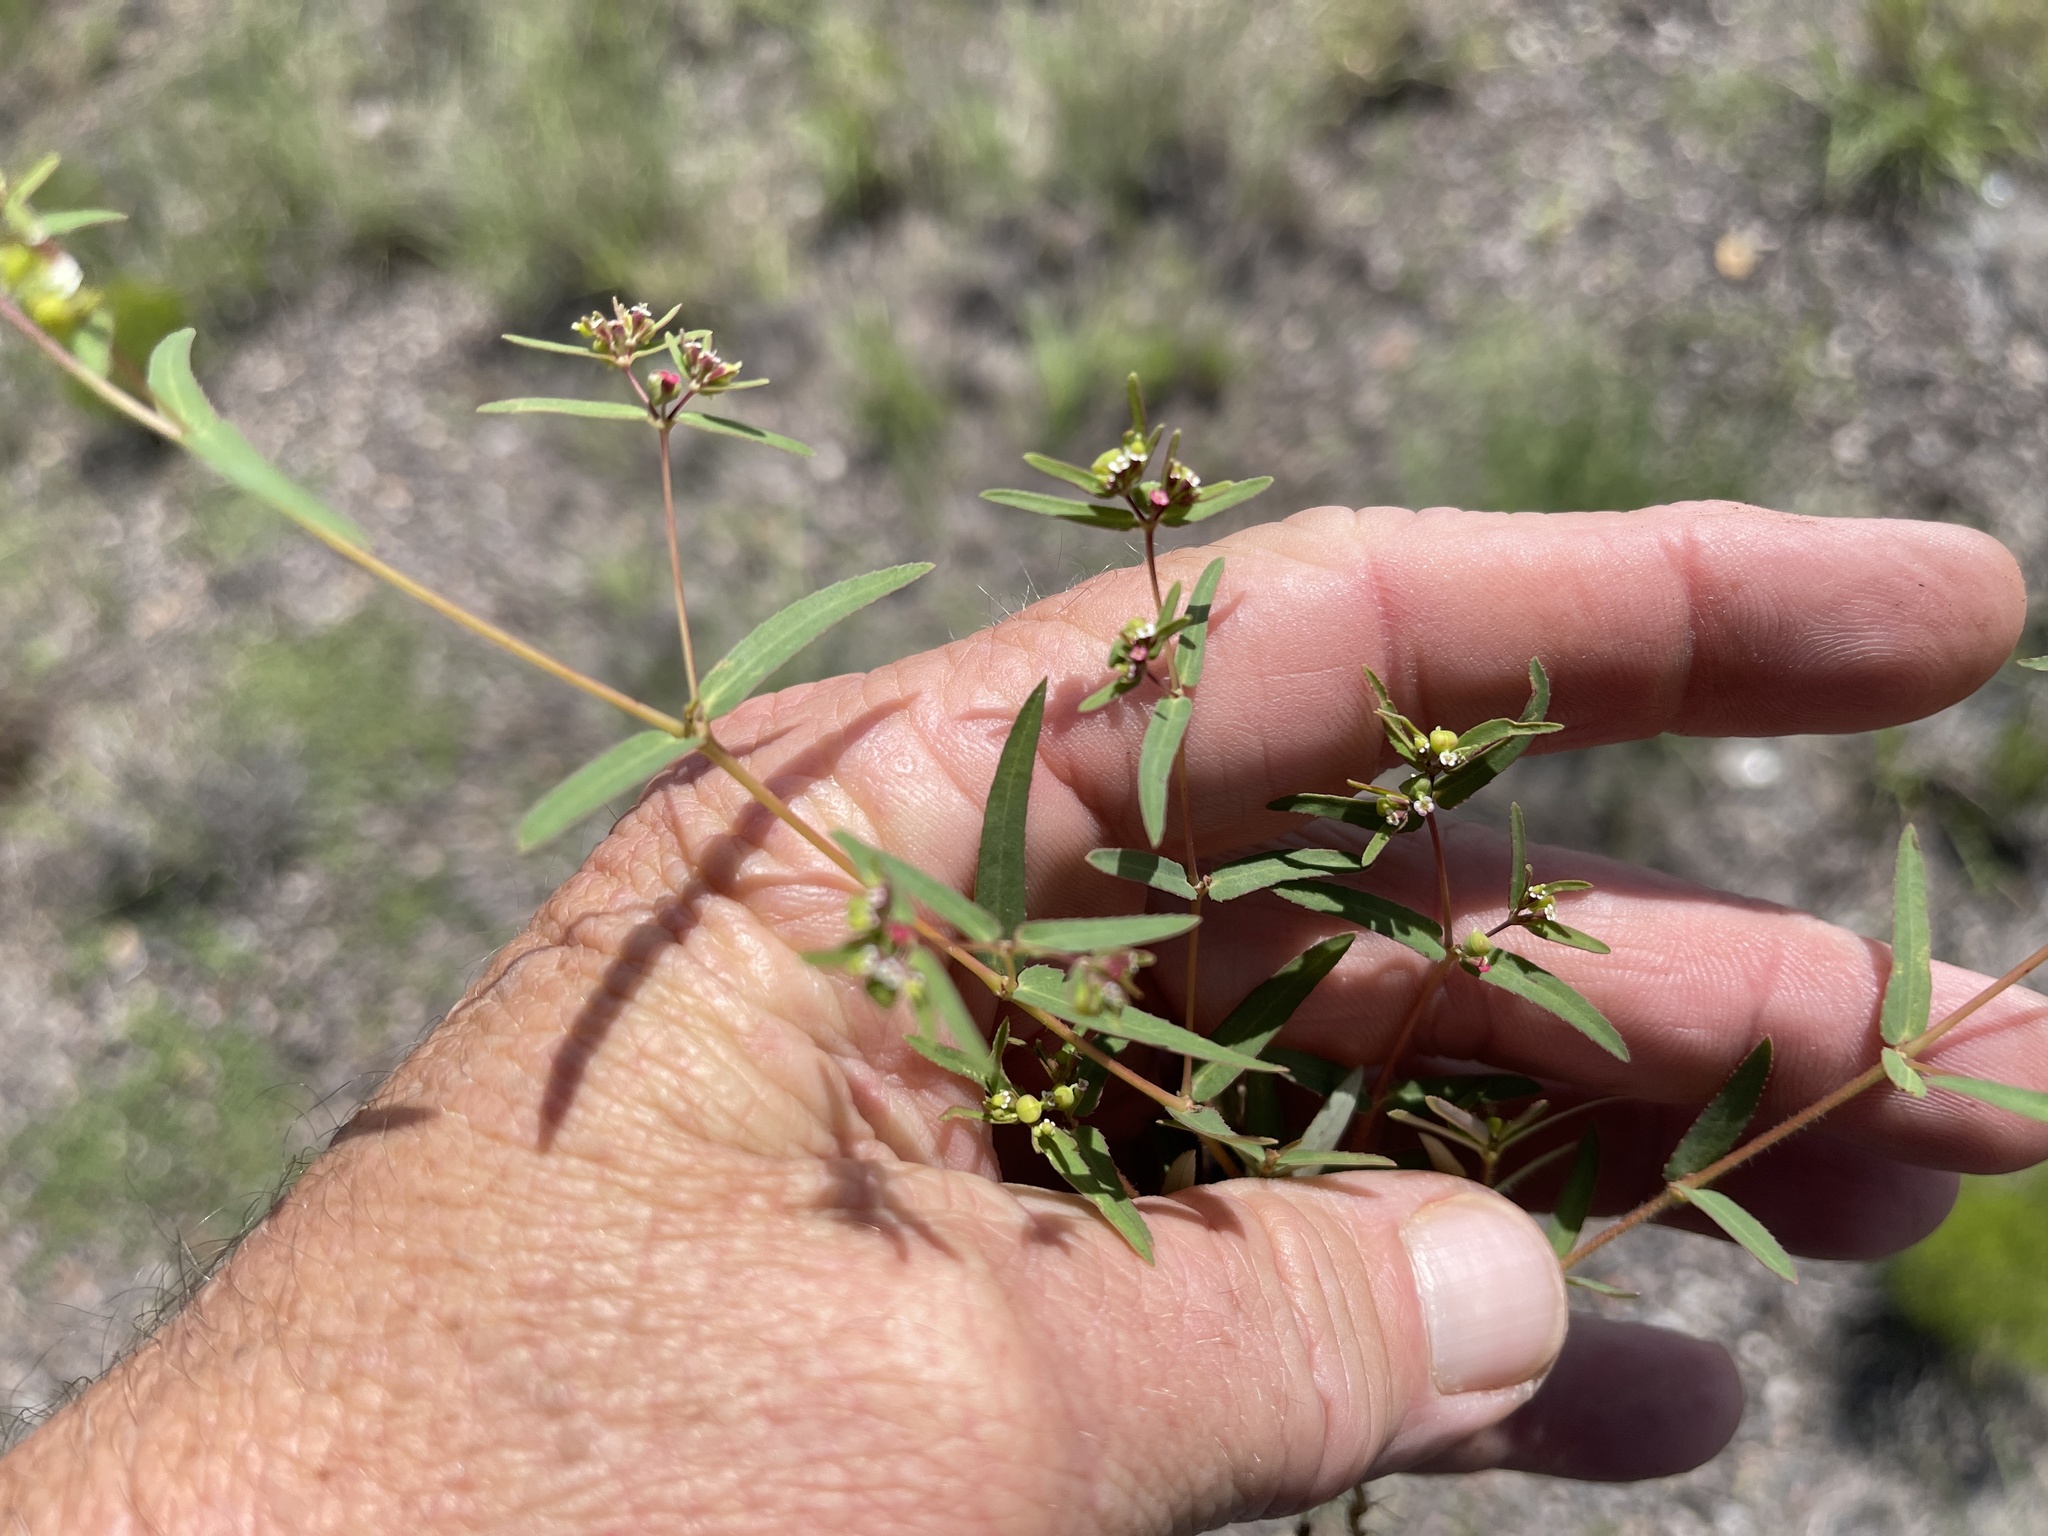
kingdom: Plantae
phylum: Tracheophyta
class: Magnoliopsida
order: Malpighiales
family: Euphorbiaceae
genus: Euphorbia
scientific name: Euphorbia hyssopifolia
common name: Hyssopleaf sandmat
